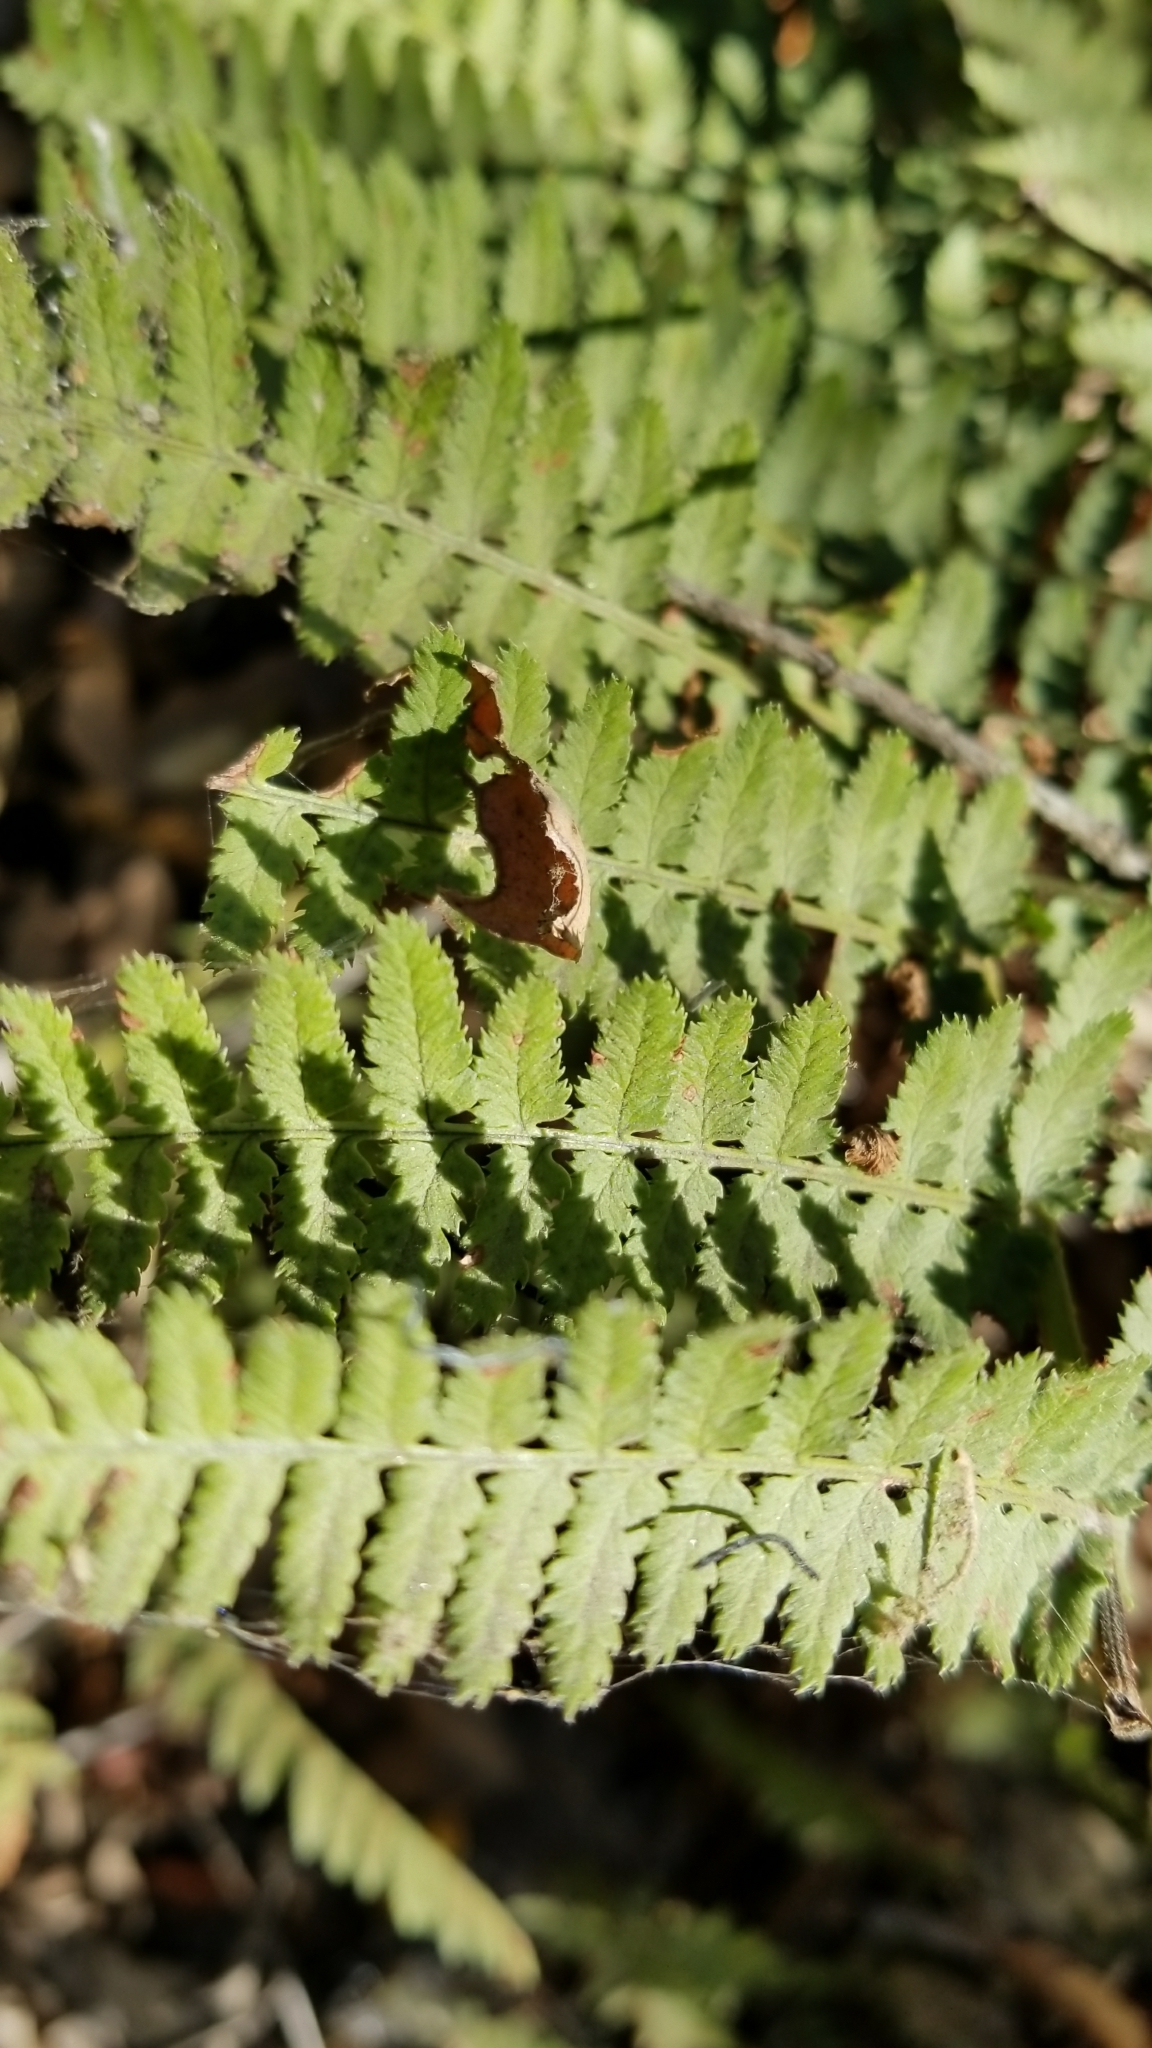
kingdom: Plantae
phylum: Tracheophyta
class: Polypodiopsida
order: Polypodiales
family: Dryopteridaceae
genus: Dryopteris
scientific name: Dryopteris arguta
